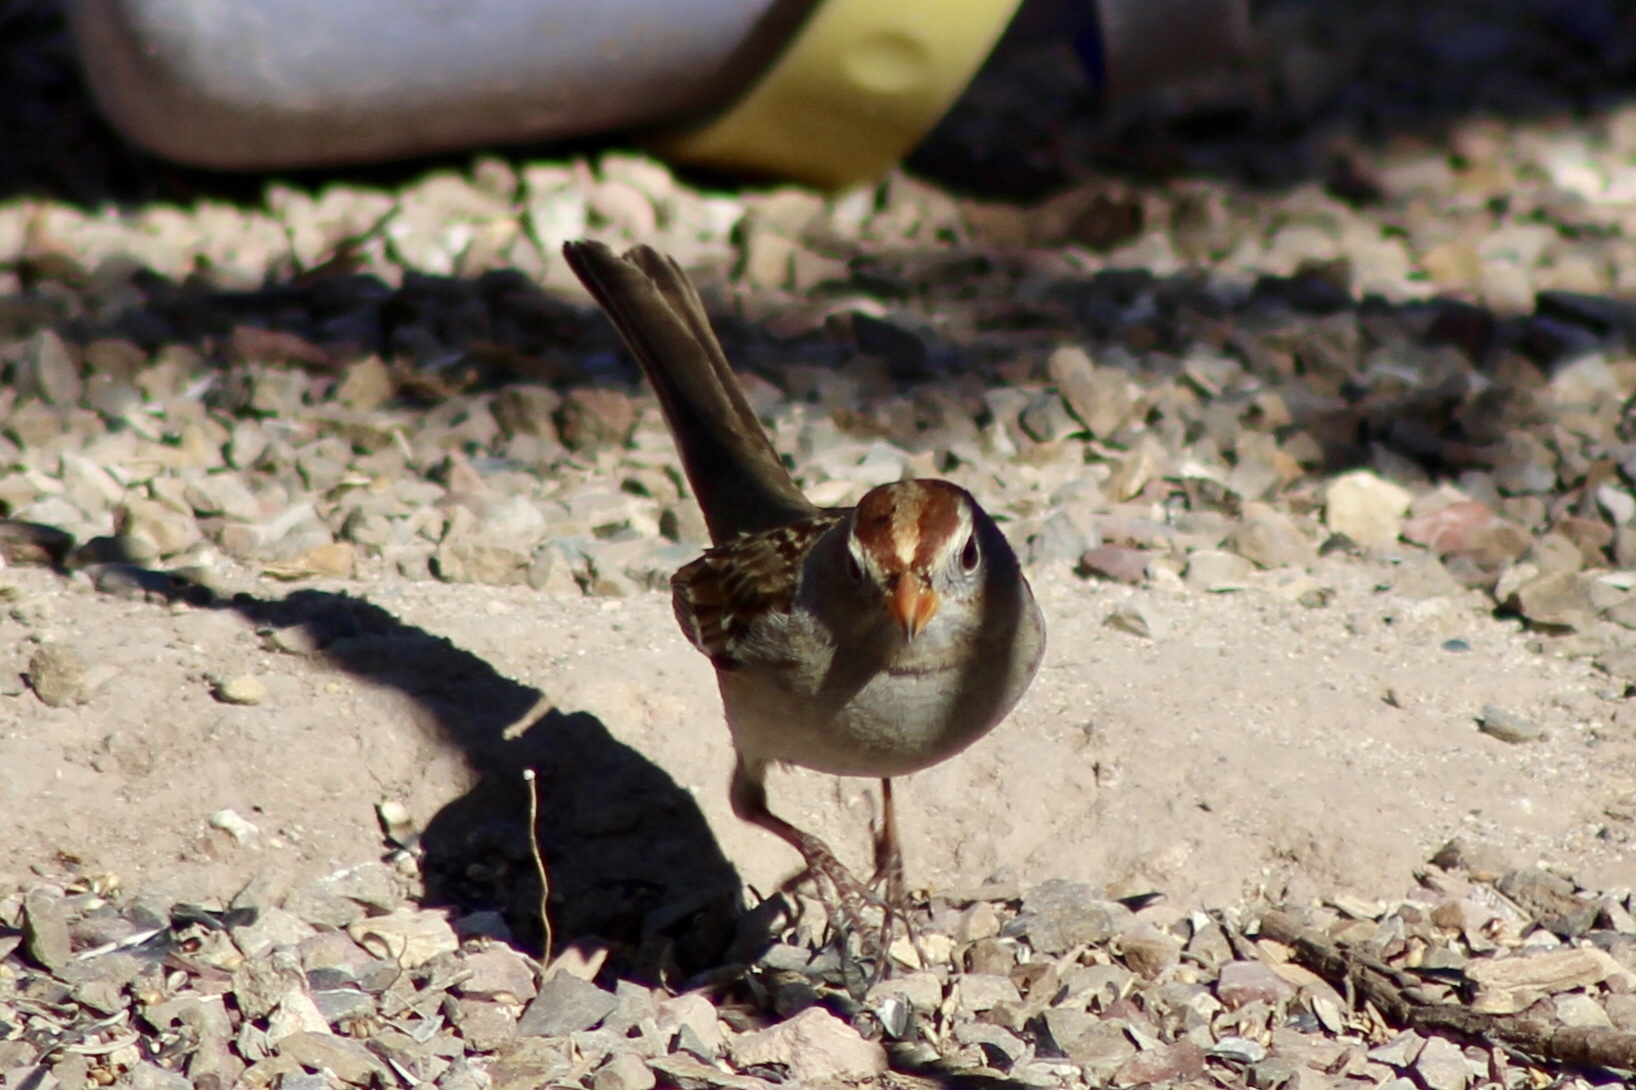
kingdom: Animalia
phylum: Chordata
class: Aves
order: Passeriformes
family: Passerellidae
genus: Zonotrichia
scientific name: Zonotrichia leucophrys
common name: White-crowned sparrow
